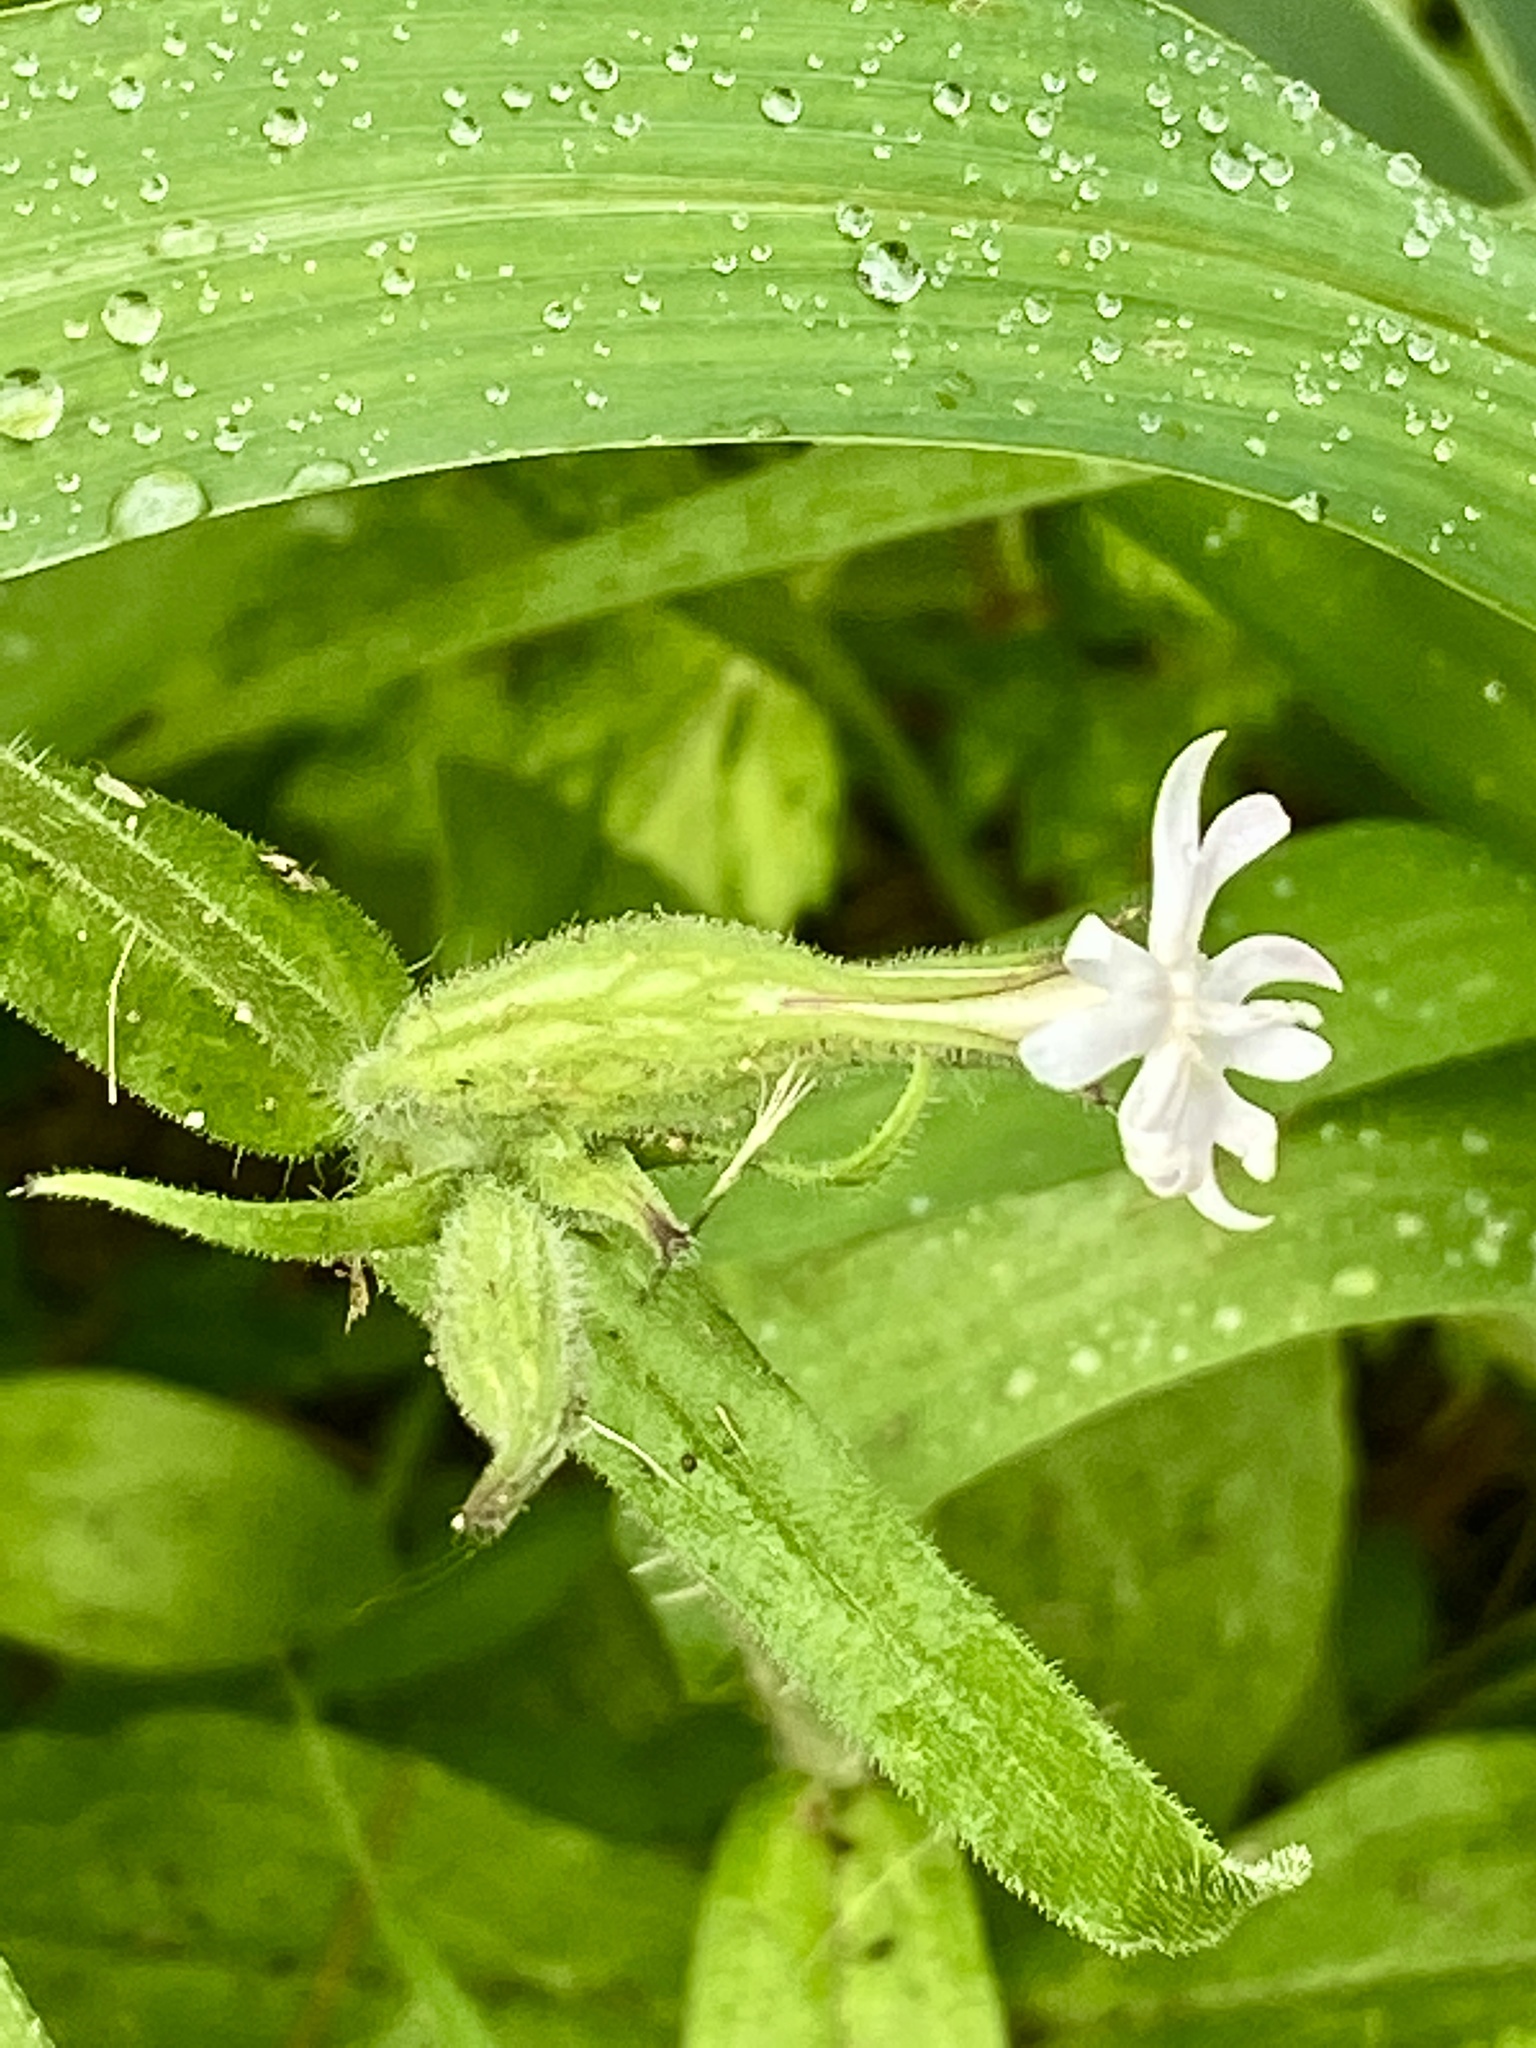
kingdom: Plantae
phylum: Tracheophyta
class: Magnoliopsida
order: Caryophyllales
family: Caryophyllaceae
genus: Silene
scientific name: Silene latifolia
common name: White campion
